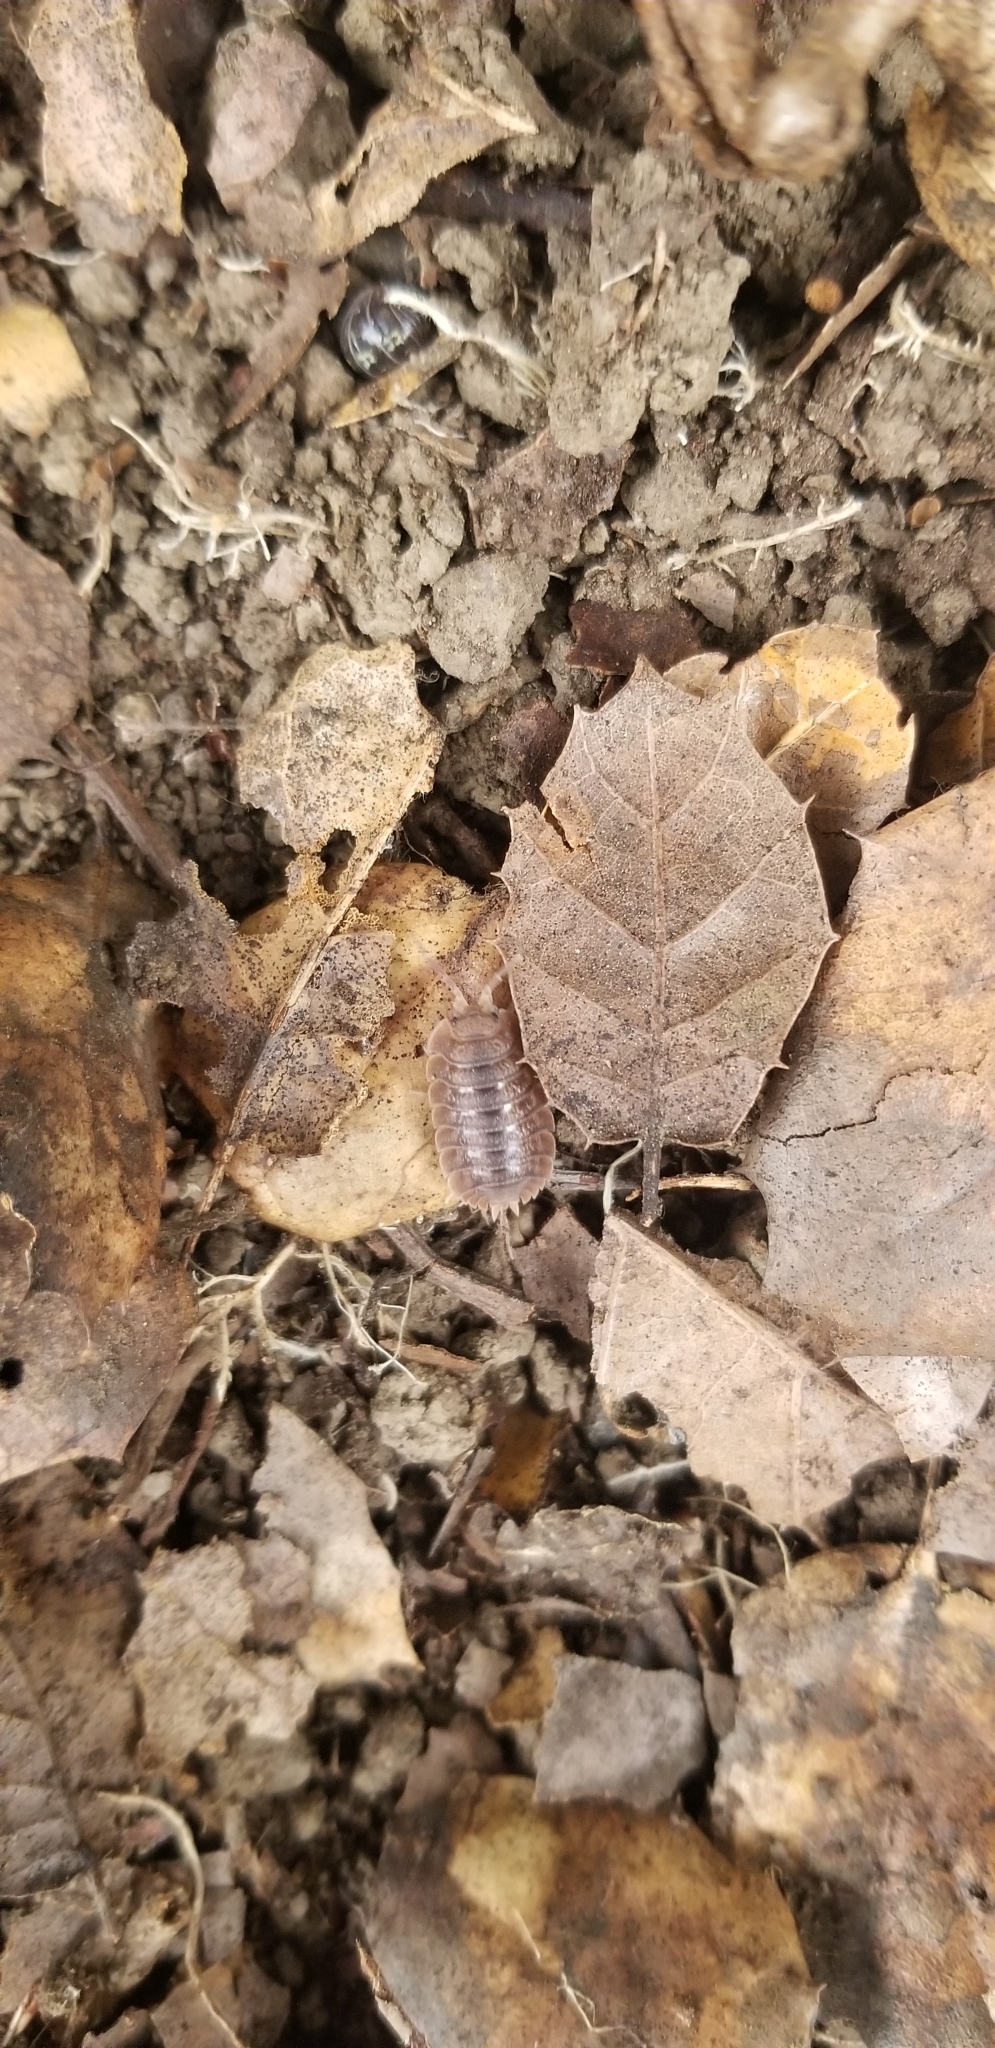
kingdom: Animalia
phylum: Arthropoda
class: Malacostraca
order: Isopoda
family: Porcellionidae
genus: Porcellio
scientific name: Porcellio dilatatus
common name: Isopod
